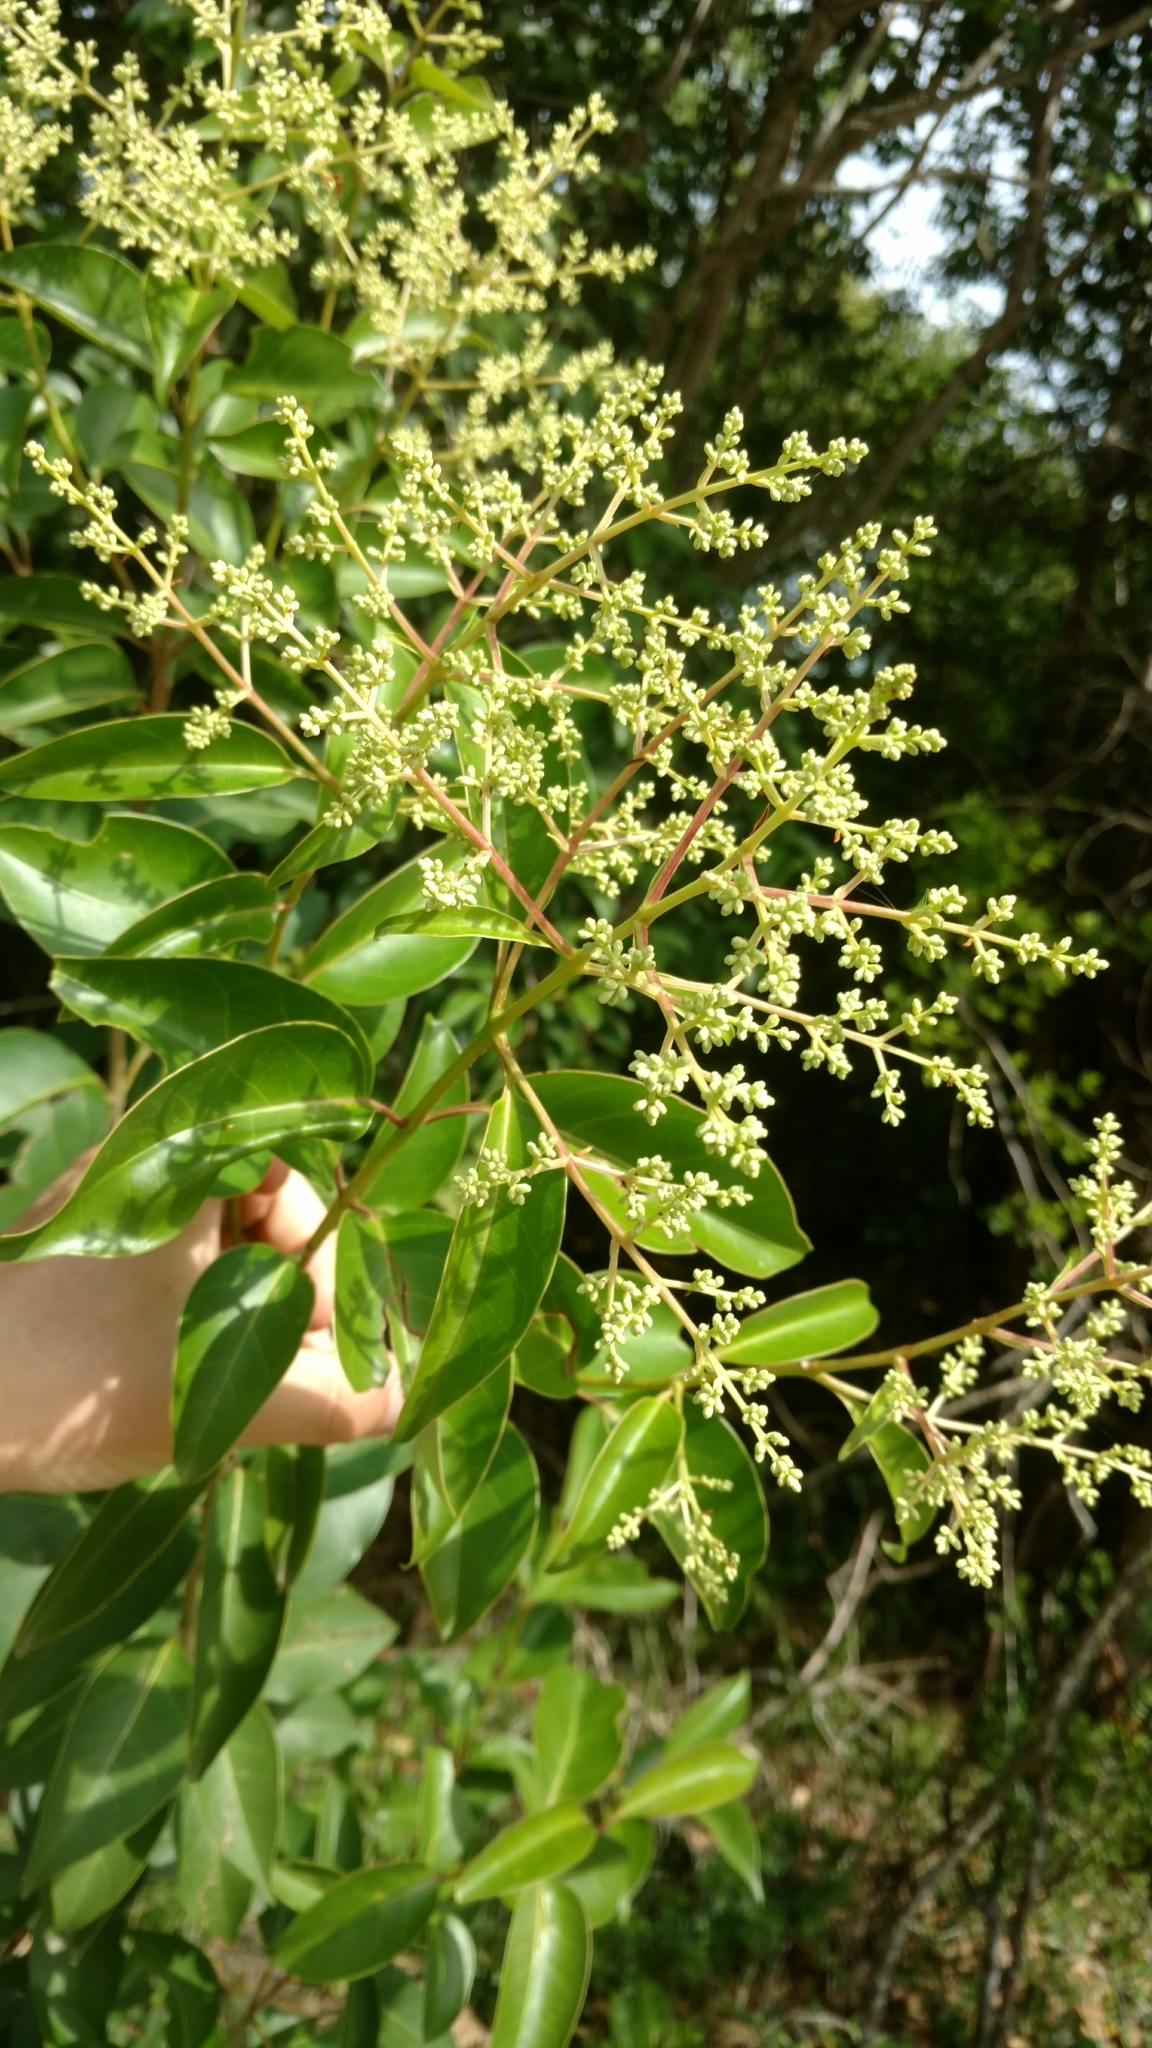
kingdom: Plantae
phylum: Tracheophyta
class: Magnoliopsida
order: Lamiales
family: Oleaceae
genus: Ligustrum
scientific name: Ligustrum lucidum
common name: Glossy privet
